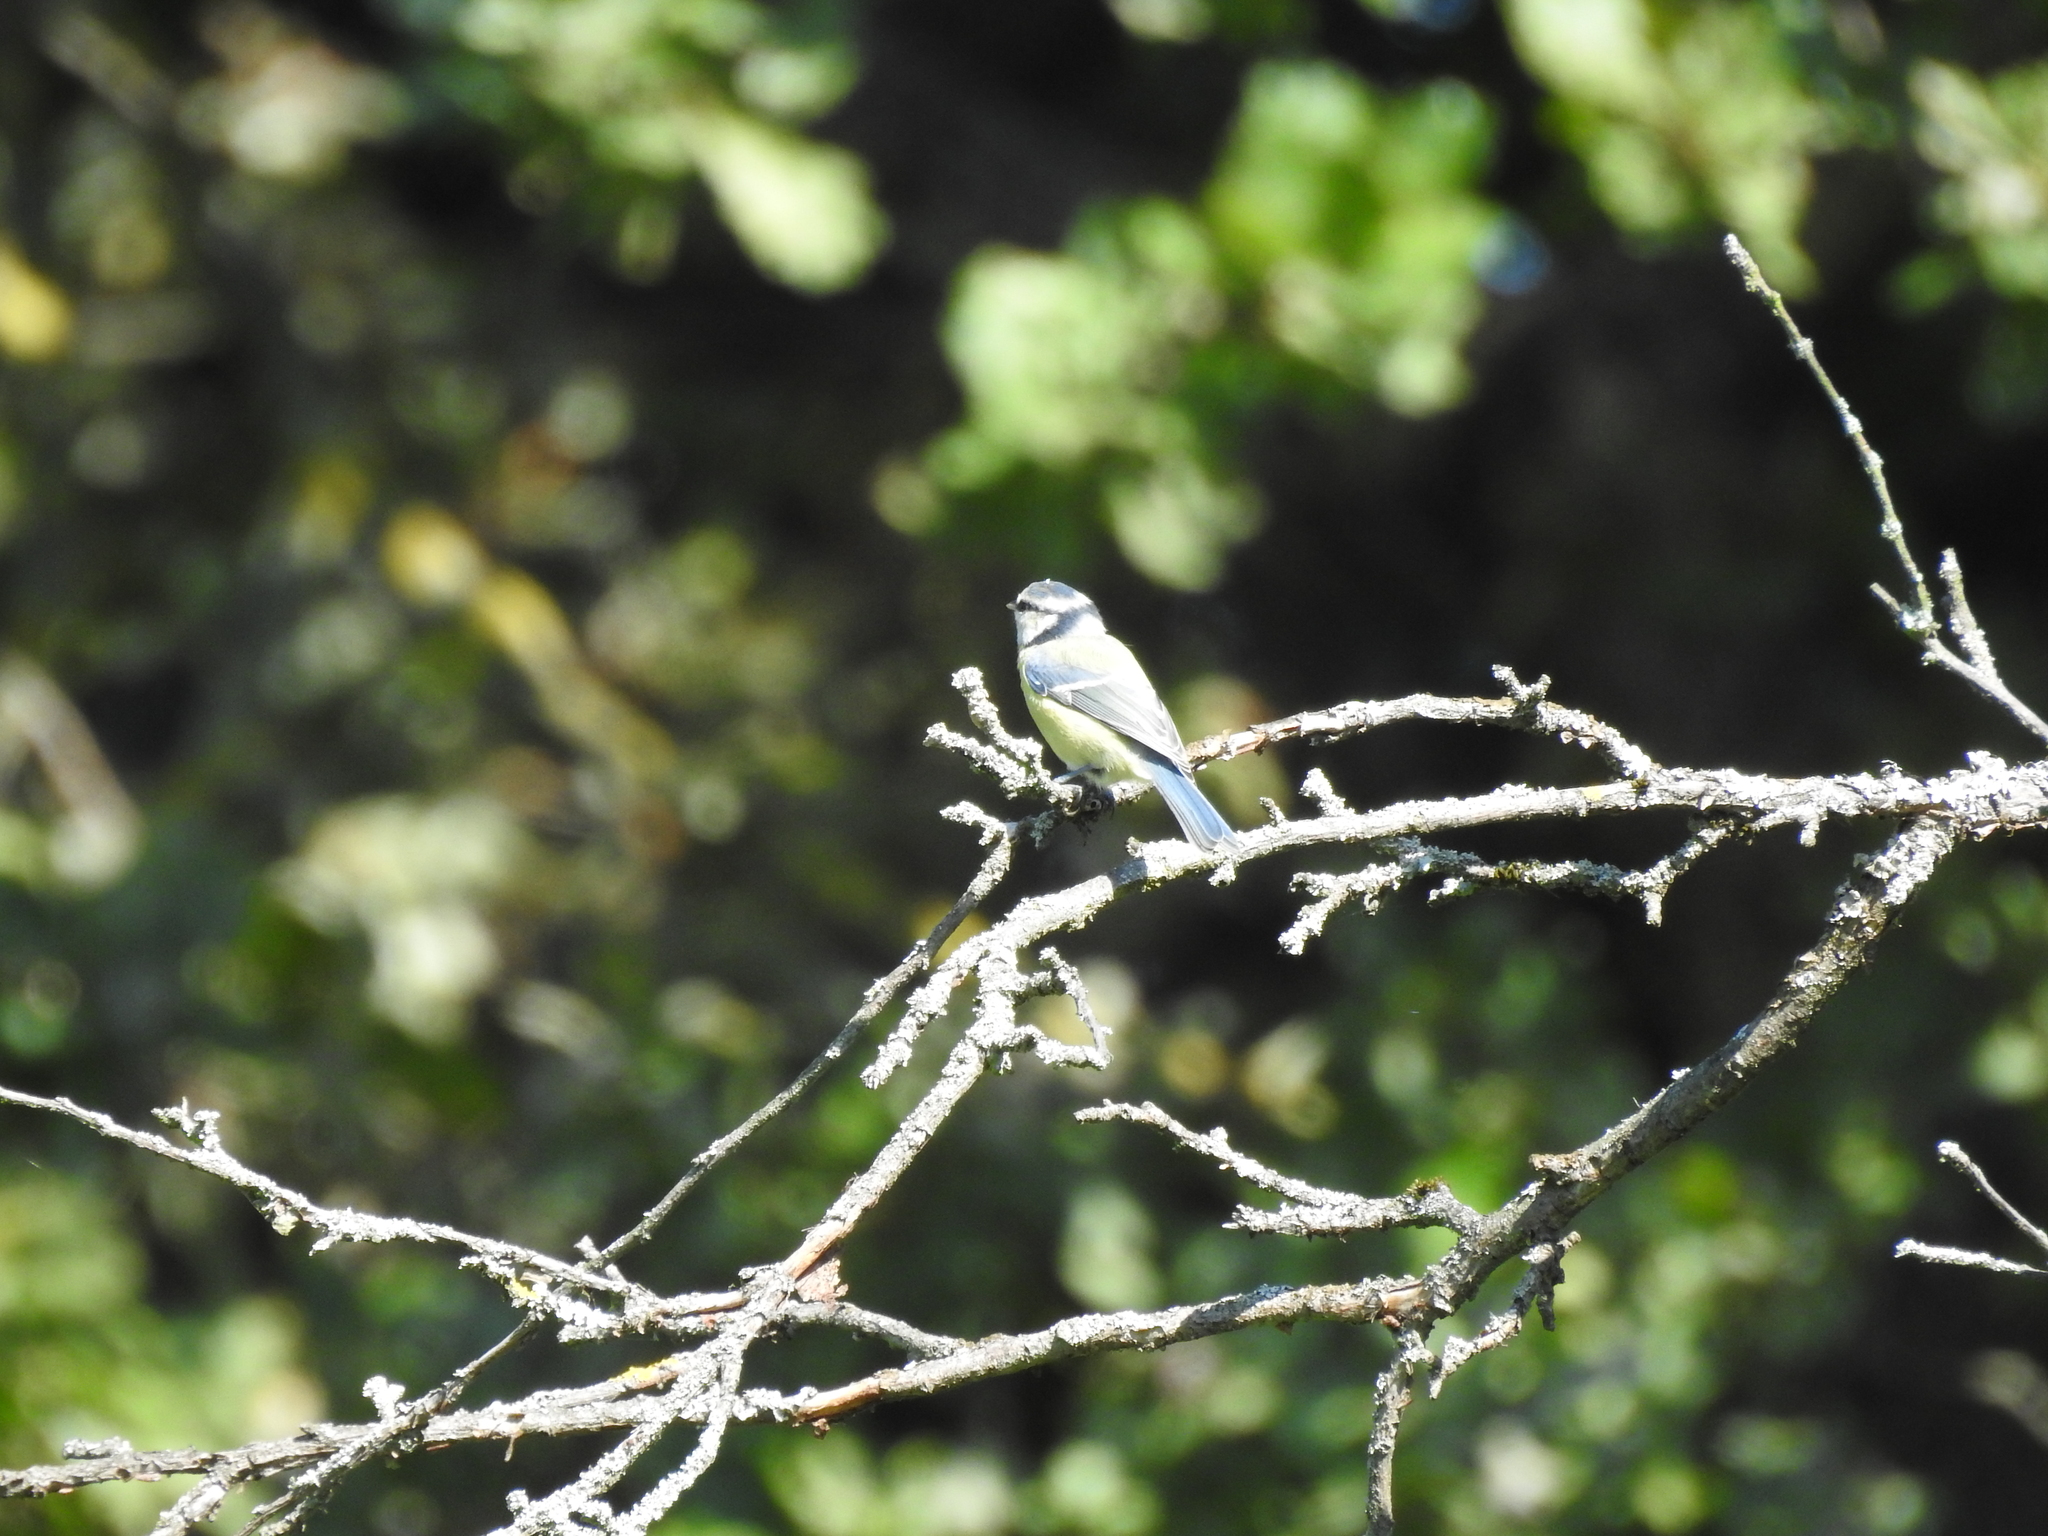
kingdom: Animalia
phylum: Chordata
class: Aves
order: Passeriformes
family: Paridae
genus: Cyanistes
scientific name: Cyanistes caeruleus
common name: Eurasian blue tit
